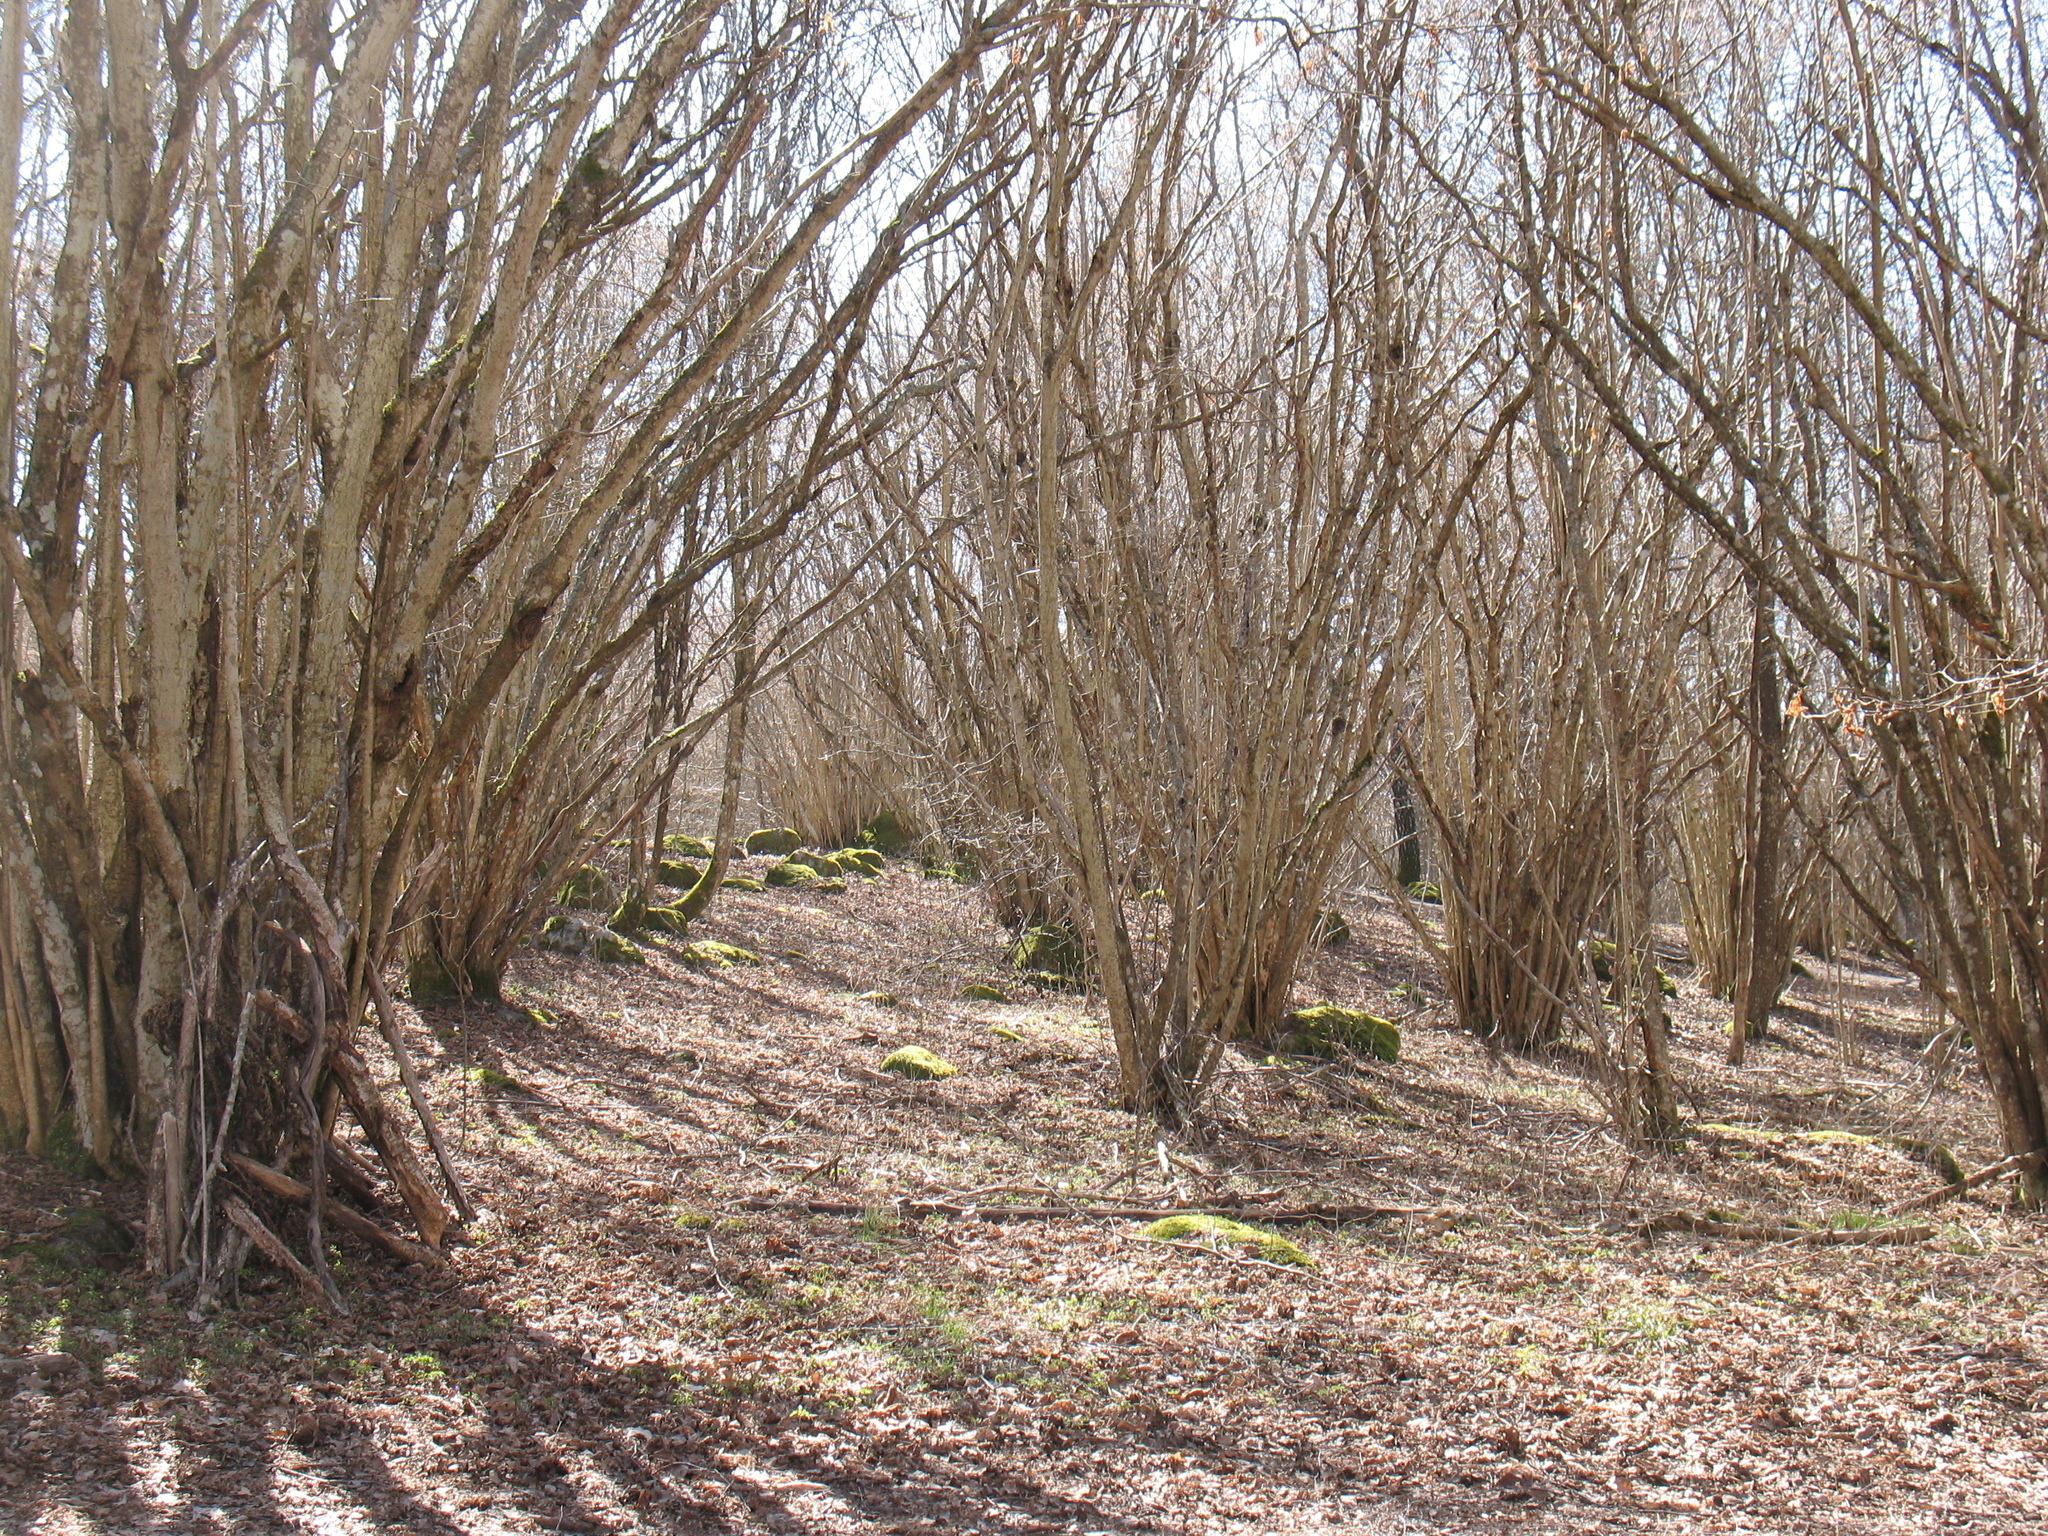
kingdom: Plantae
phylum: Tracheophyta
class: Magnoliopsida
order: Fagales
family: Betulaceae
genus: Corylus
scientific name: Corylus avellana
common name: European hazel
